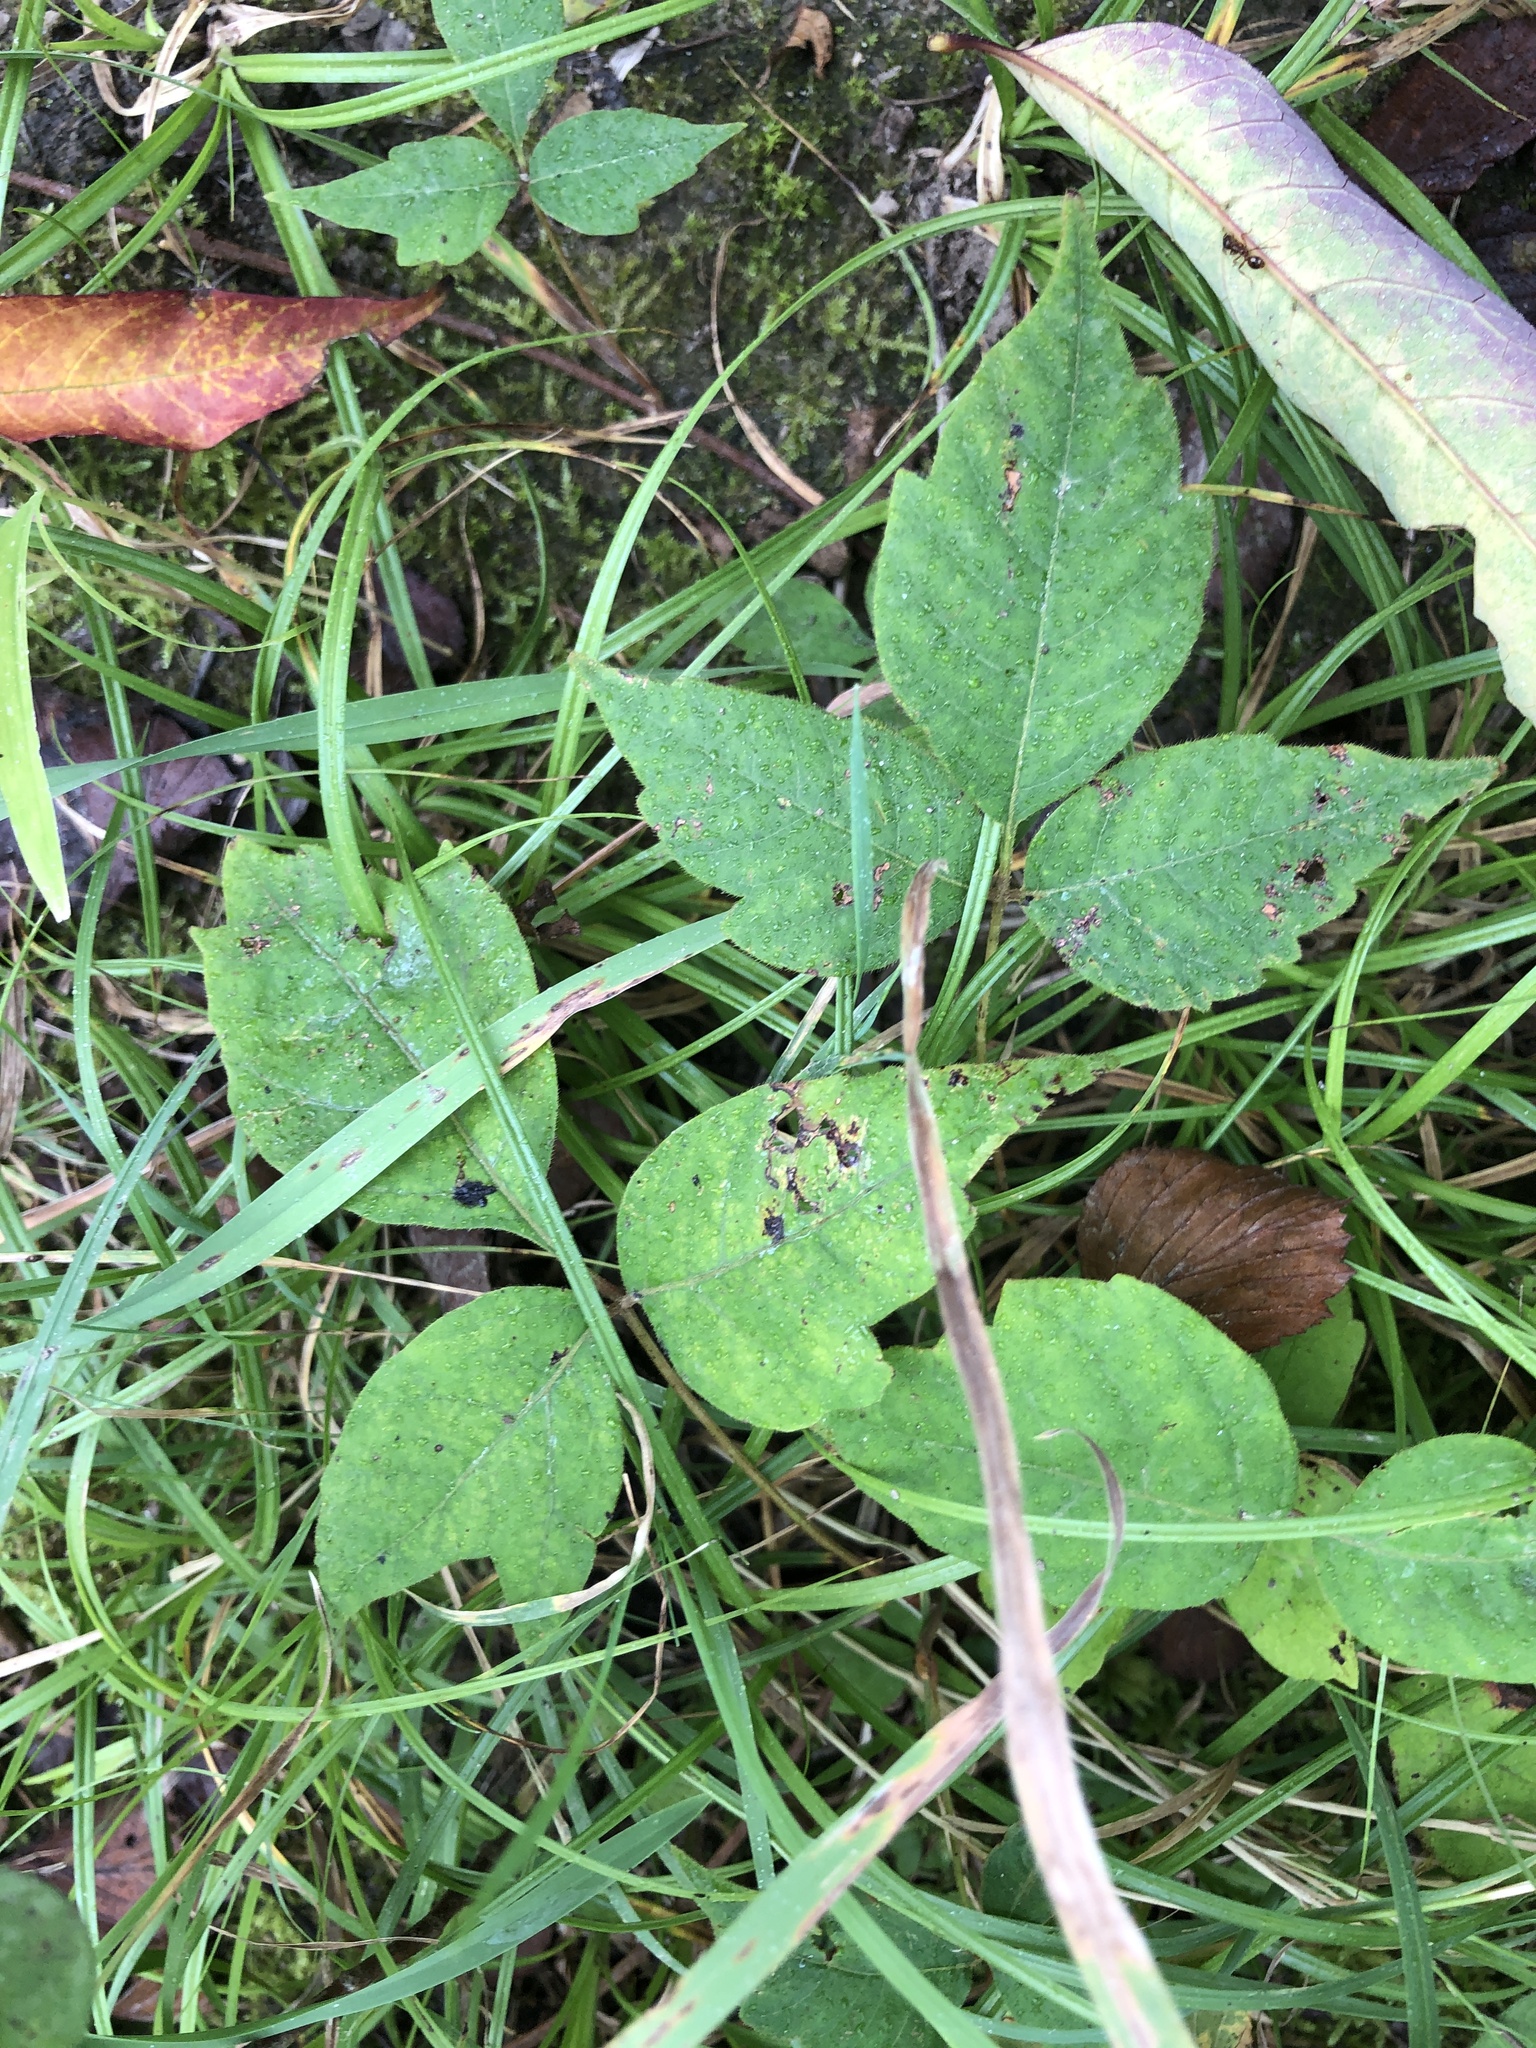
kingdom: Plantae
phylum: Tracheophyta
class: Magnoliopsida
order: Sapindales
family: Anacardiaceae
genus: Toxicodendron
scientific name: Toxicodendron radicans
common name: Poison ivy
